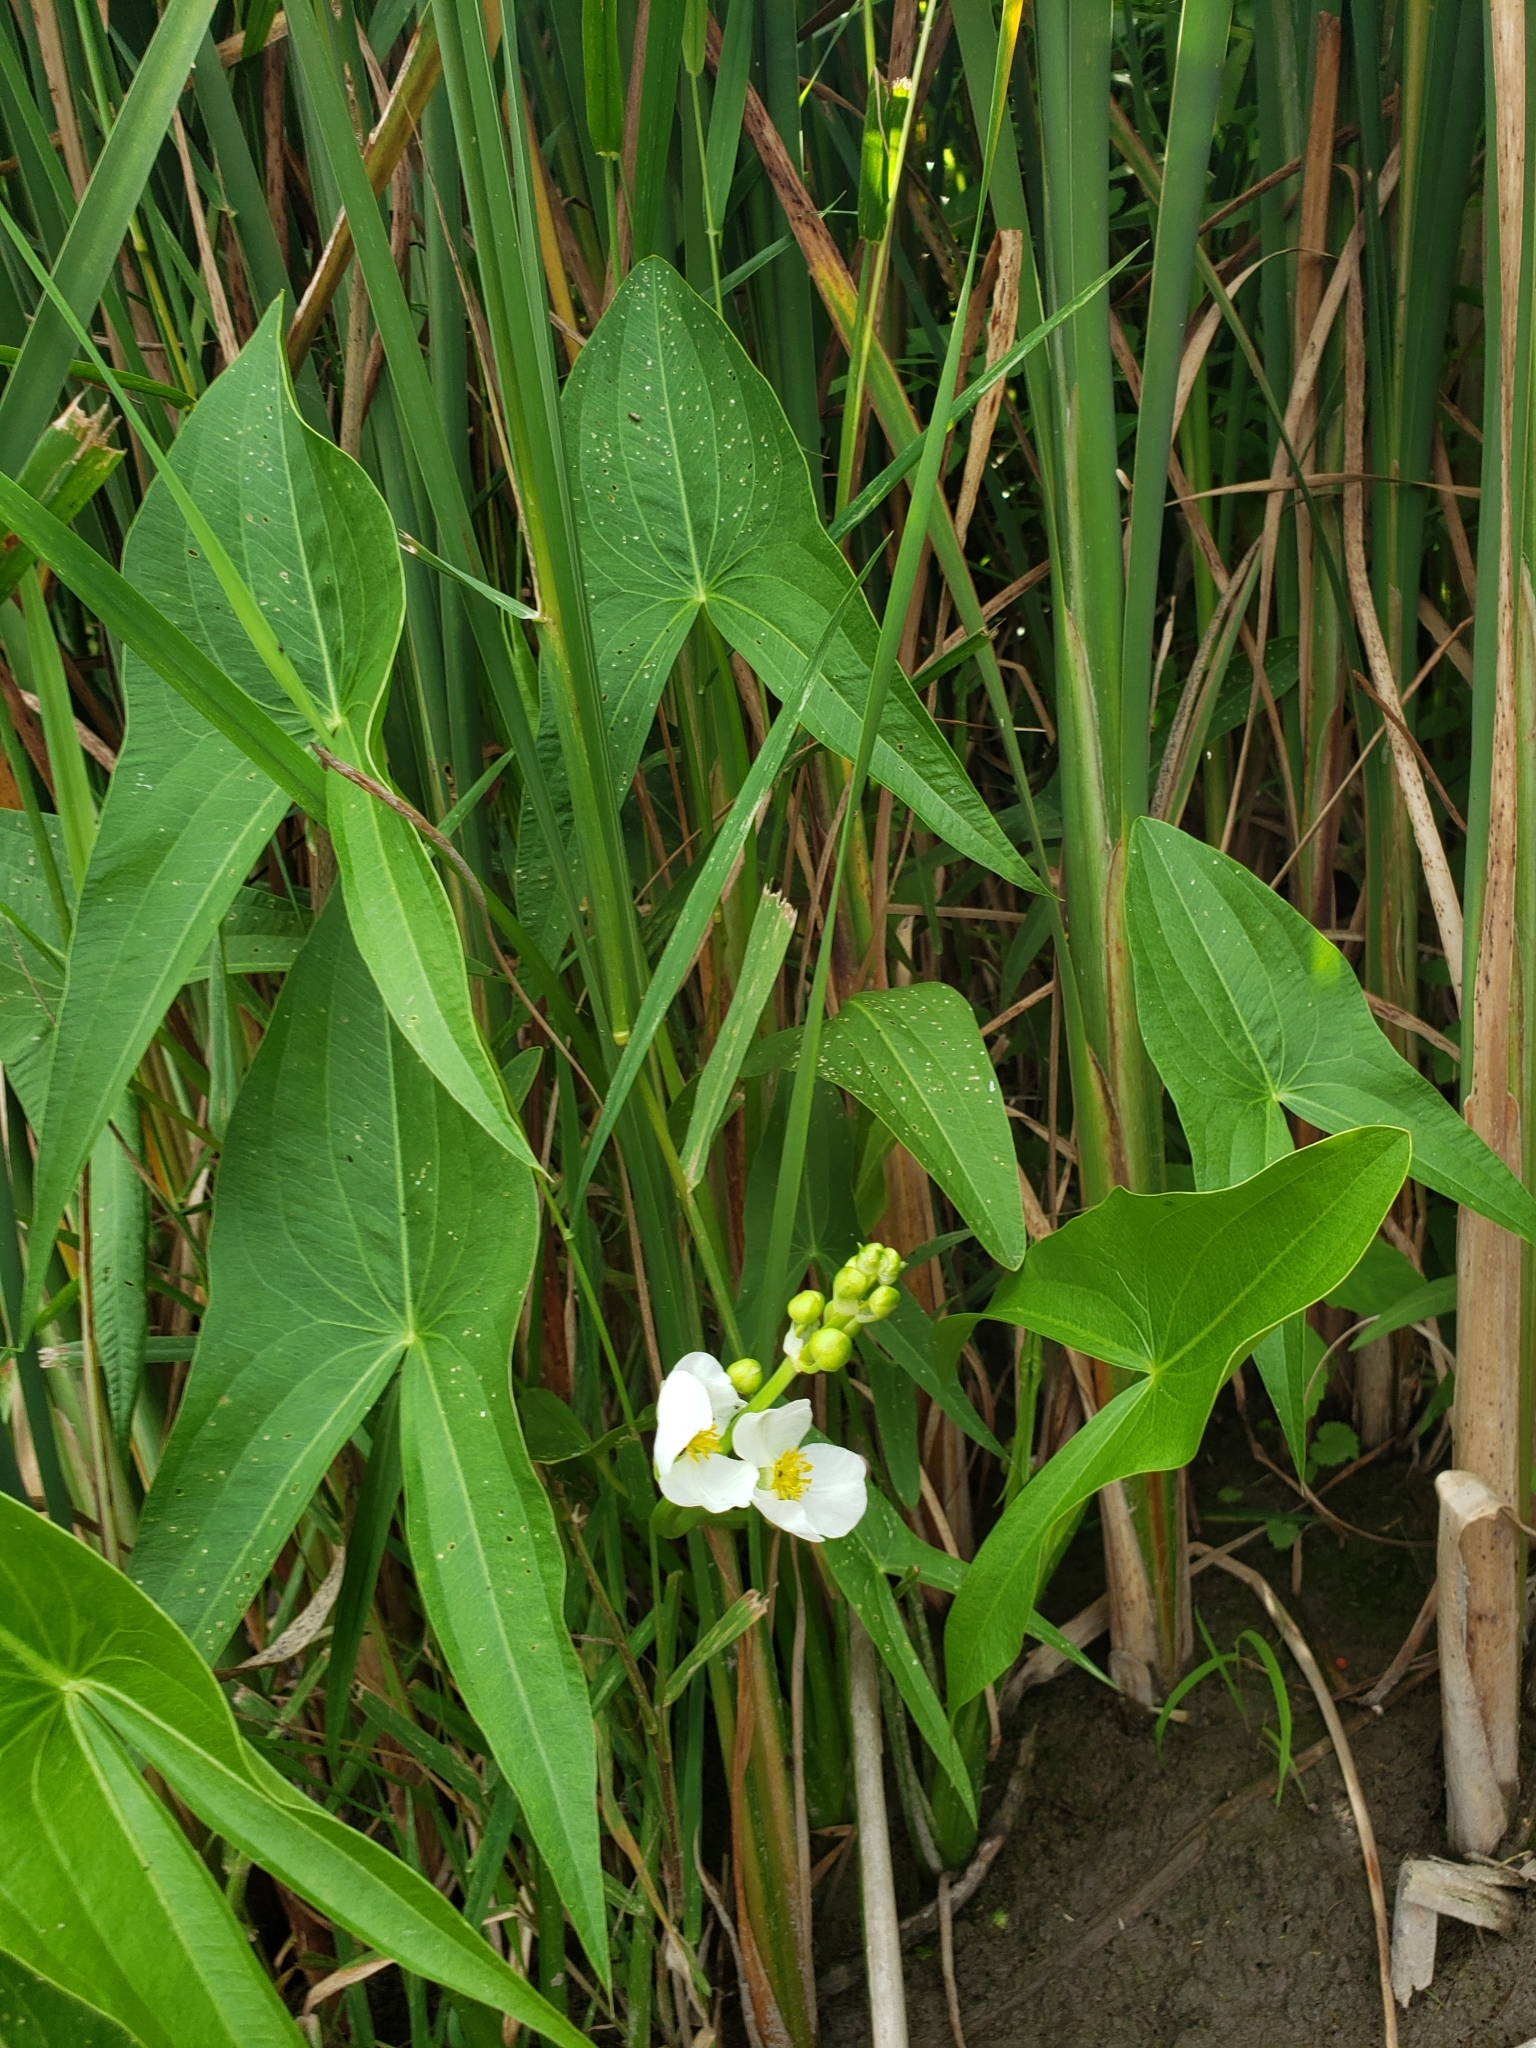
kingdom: Plantae
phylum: Tracheophyta
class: Liliopsida
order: Alismatales
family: Alismataceae
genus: Sagittaria
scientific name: Sagittaria latifolia
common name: Duck-potato
